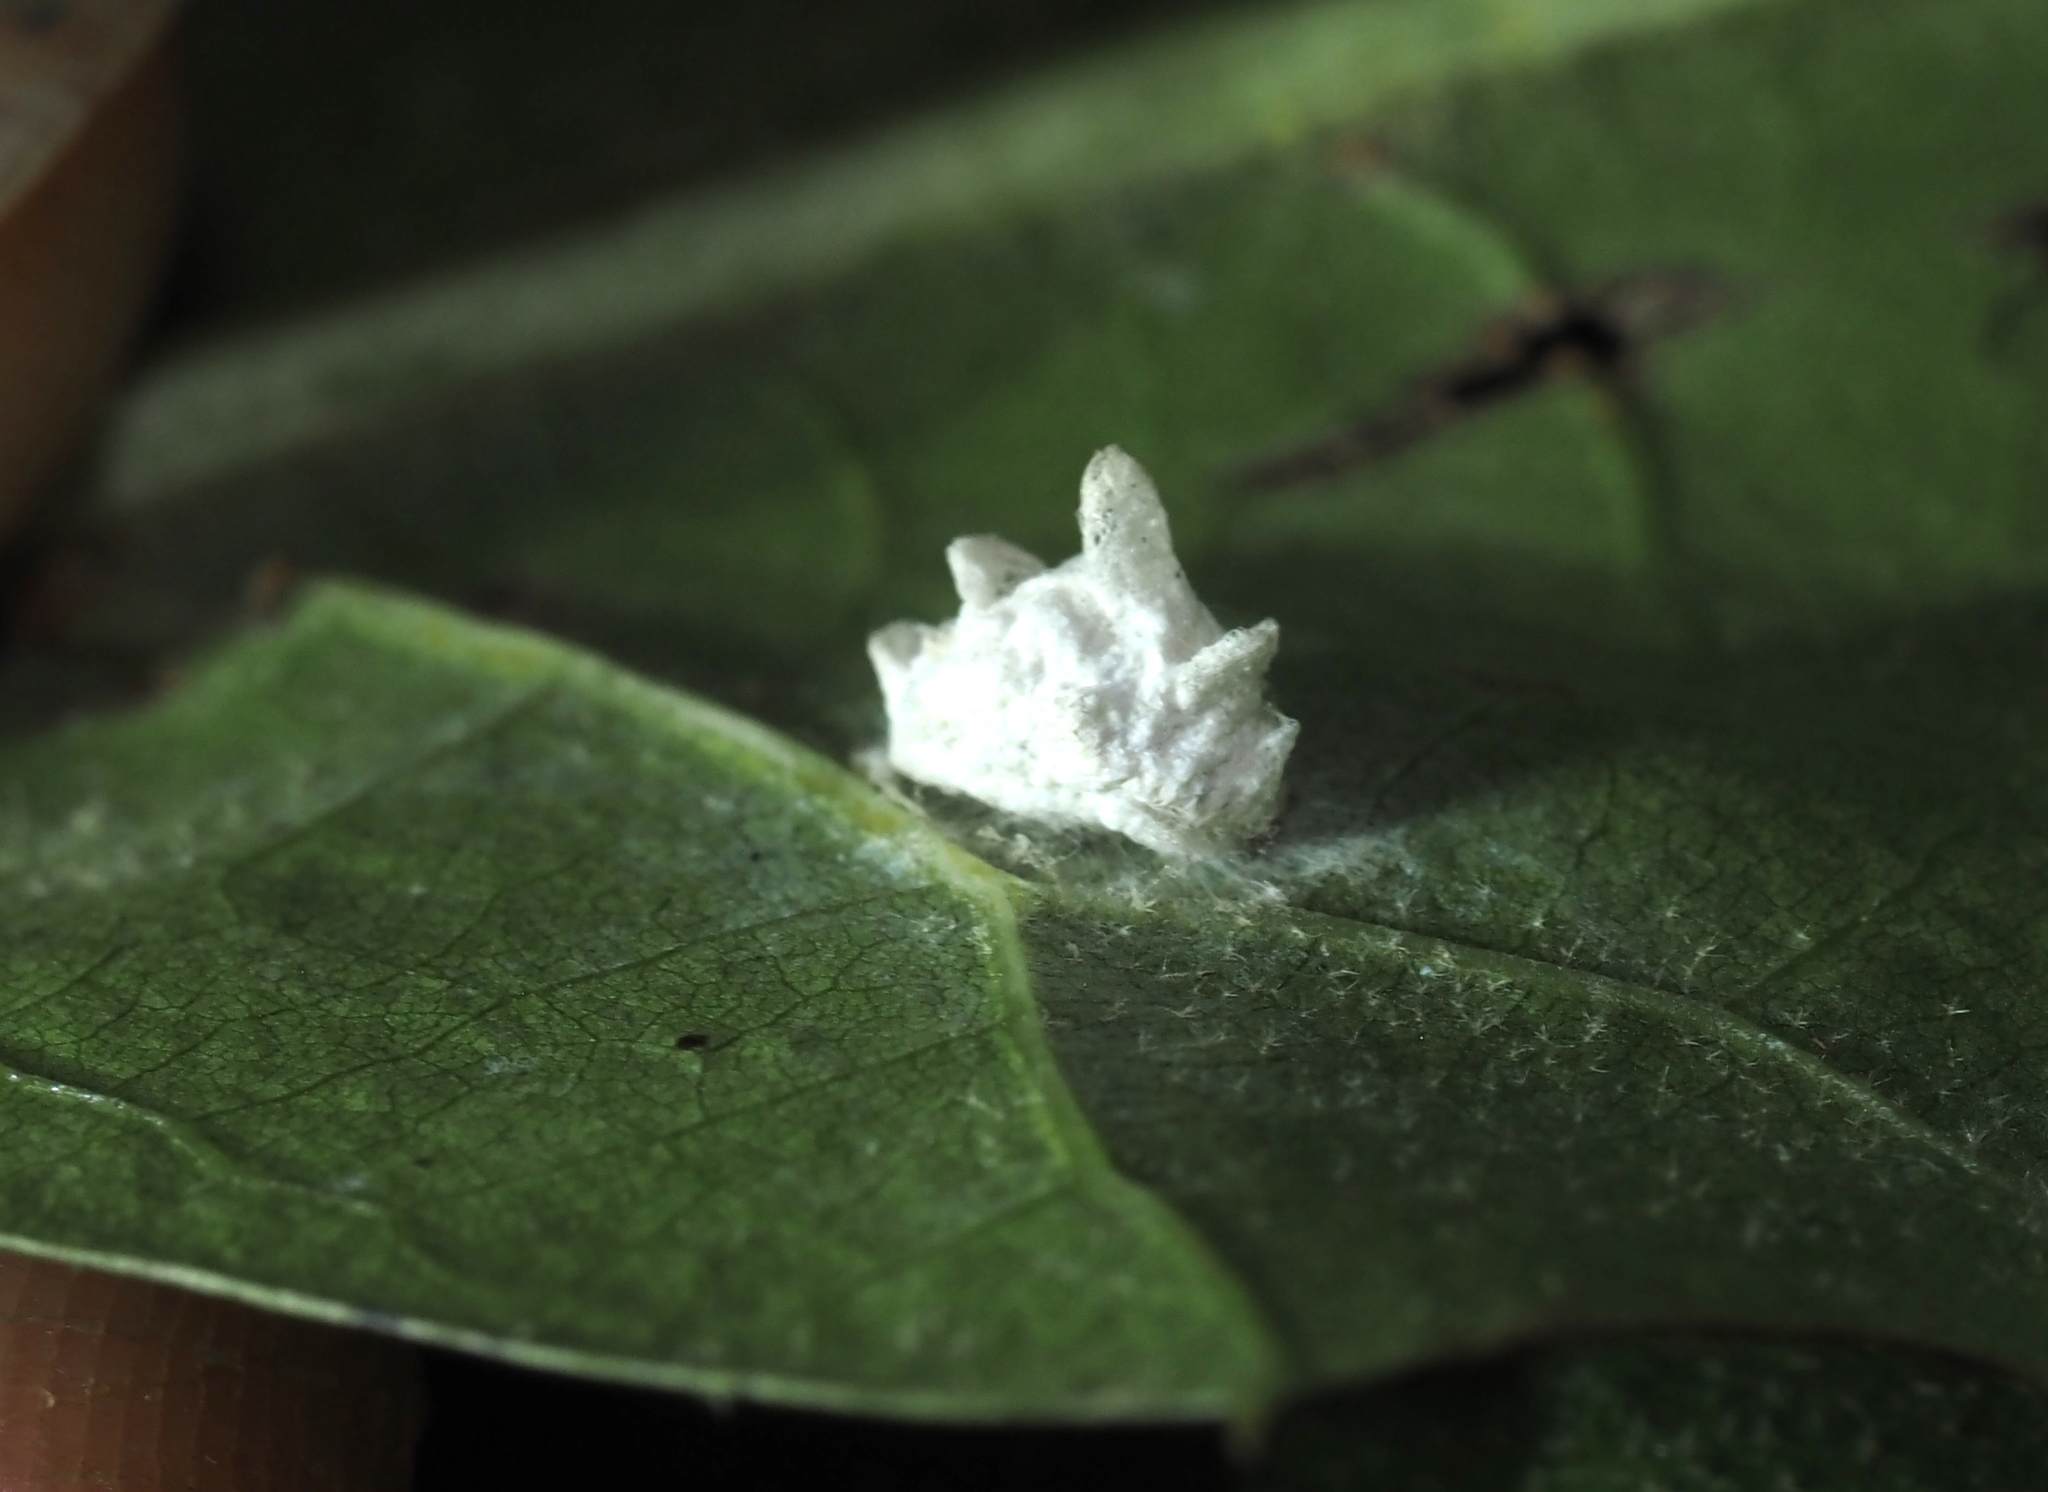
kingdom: Animalia
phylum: Arthropoda
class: Insecta
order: Lepidoptera
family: Epipyropidae
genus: Fulgoraecia
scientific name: Fulgoraecia exigua
